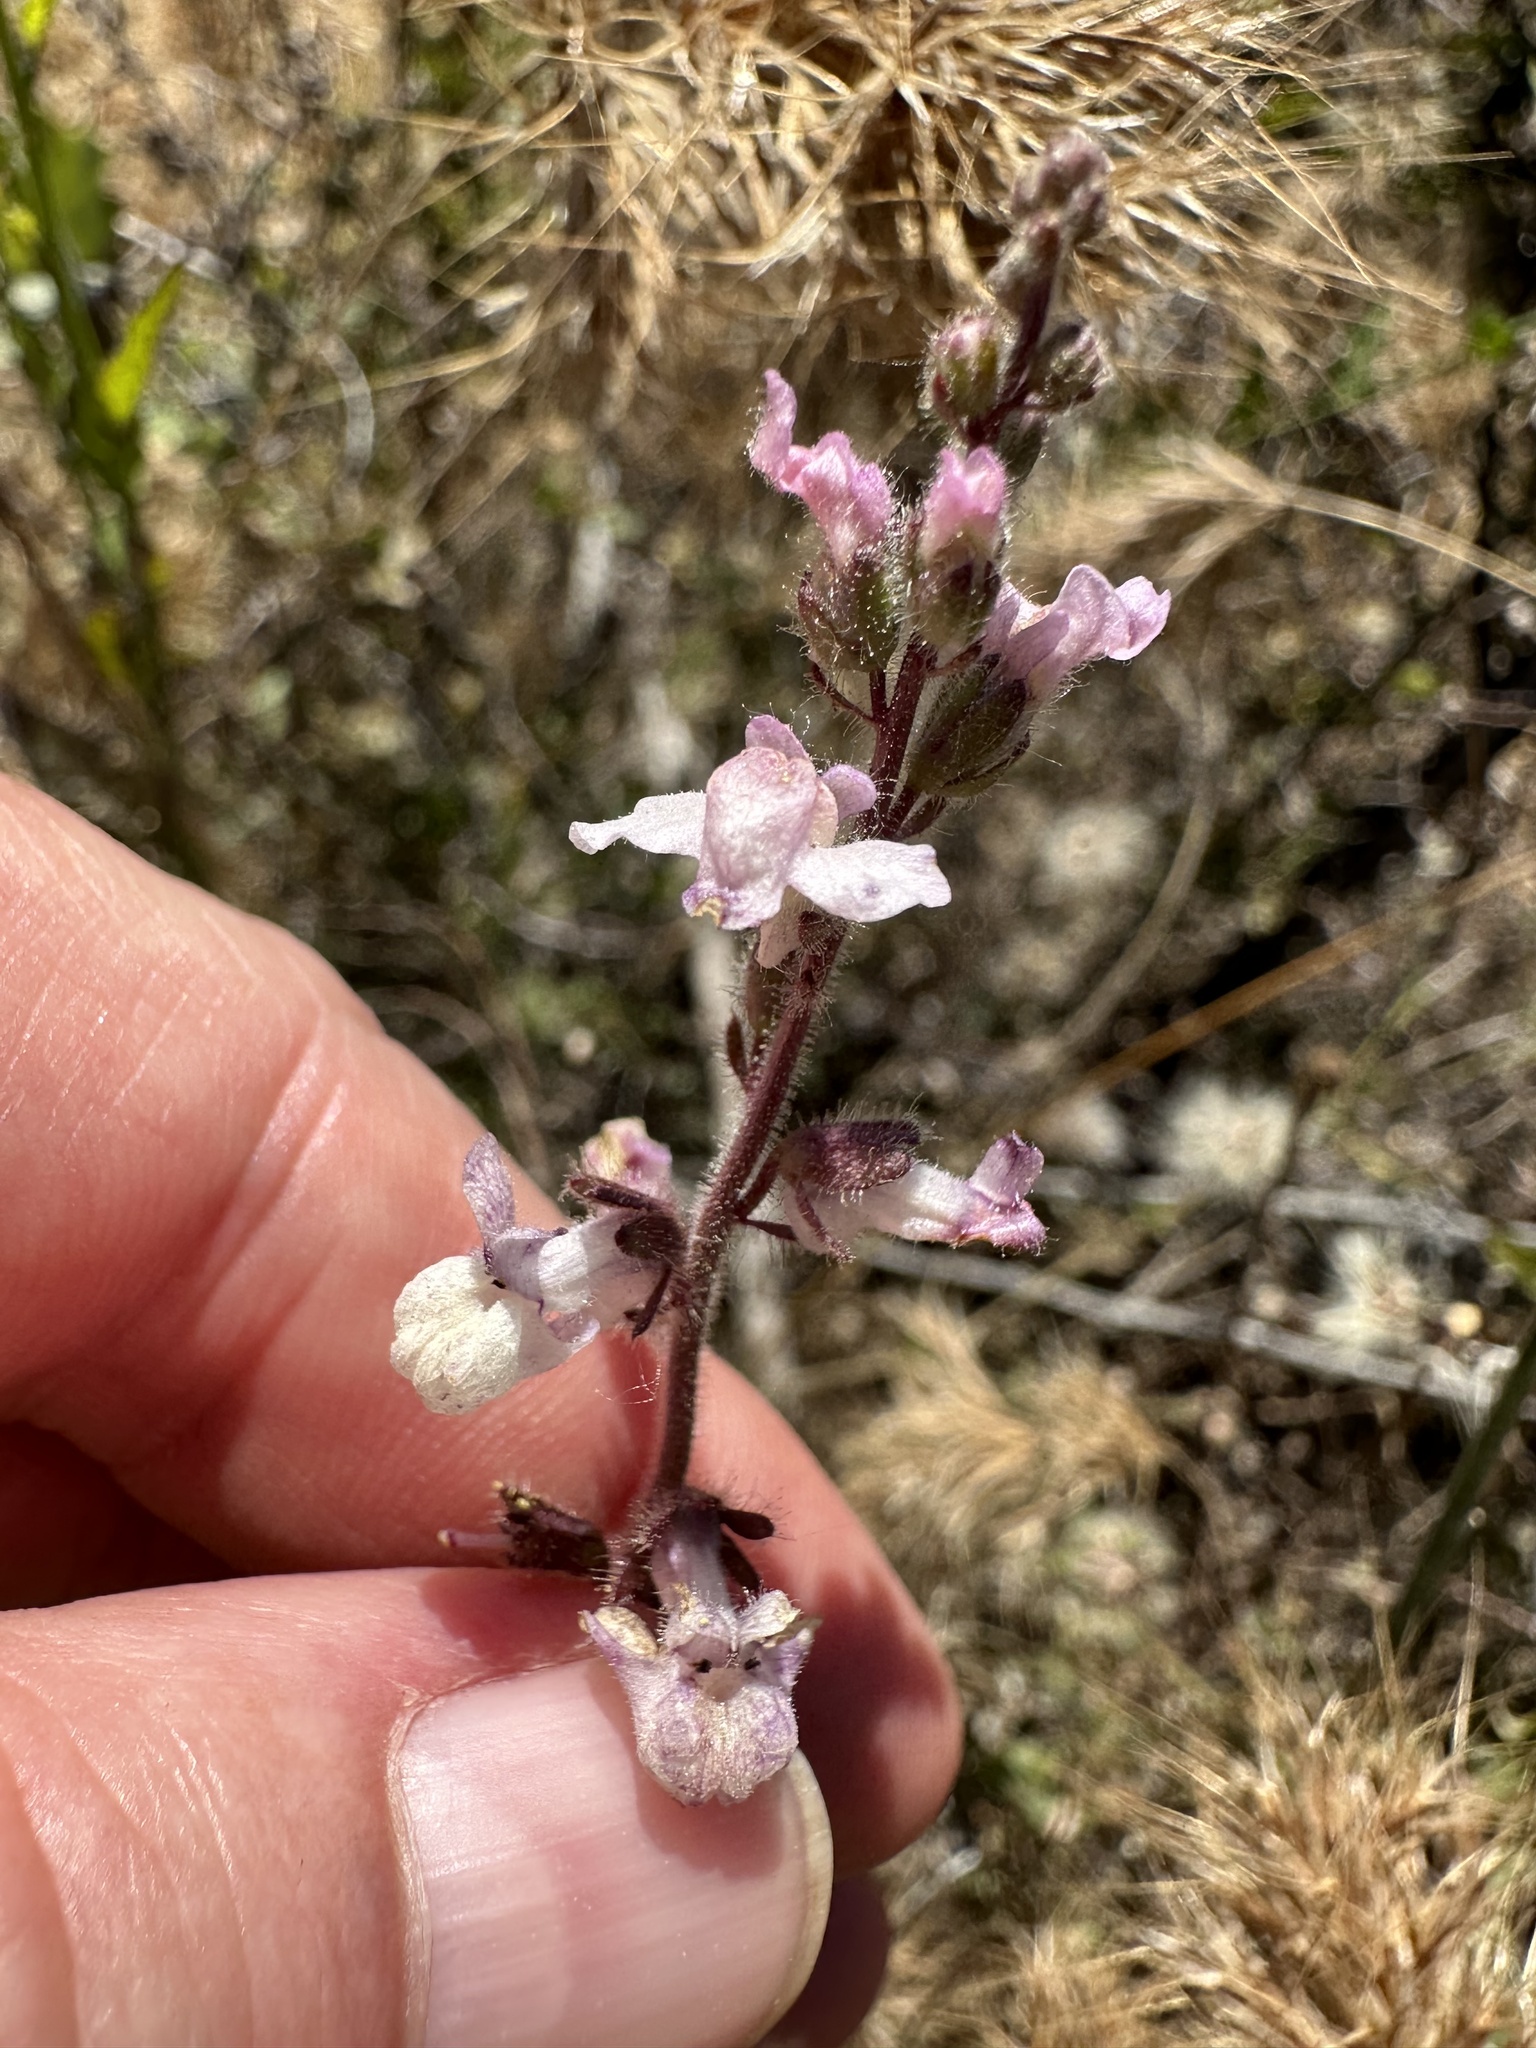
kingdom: Plantae
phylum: Tracheophyta
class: Magnoliopsida
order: Lamiales
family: Plantaginaceae
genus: Sairocarpus
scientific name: Sairocarpus coulterianus
